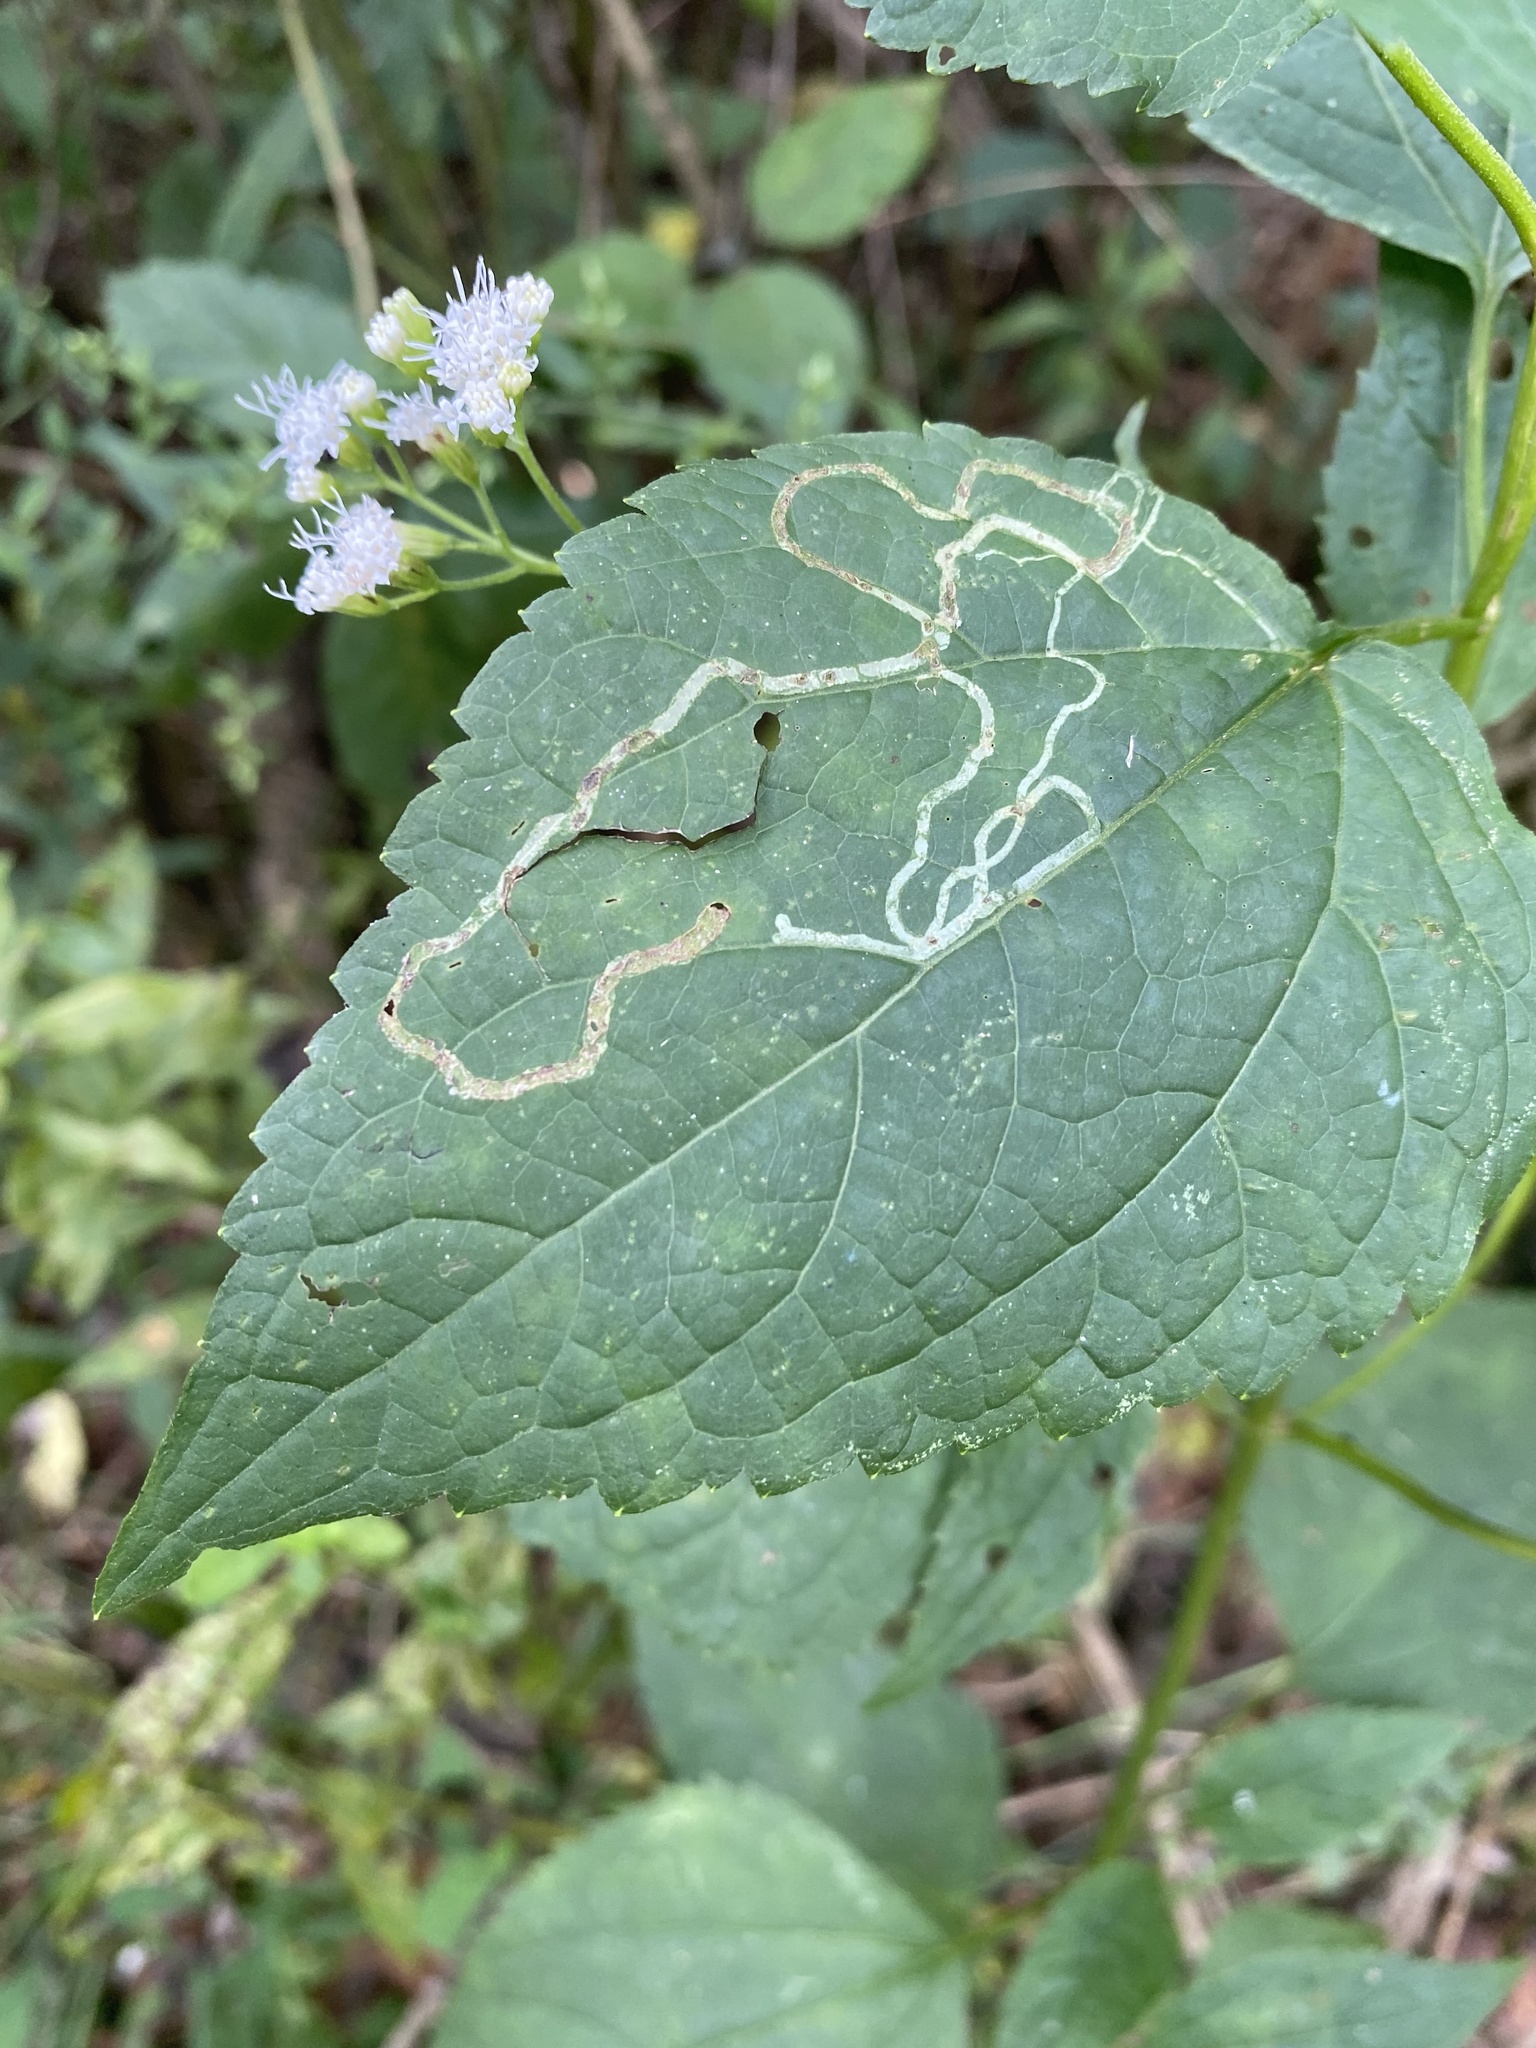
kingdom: Plantae
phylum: Tracheophyta
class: Magnoliopsida
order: Asterales
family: Asteraceae
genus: Ageratina
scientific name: Ageratina altissima
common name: White snakeroot
